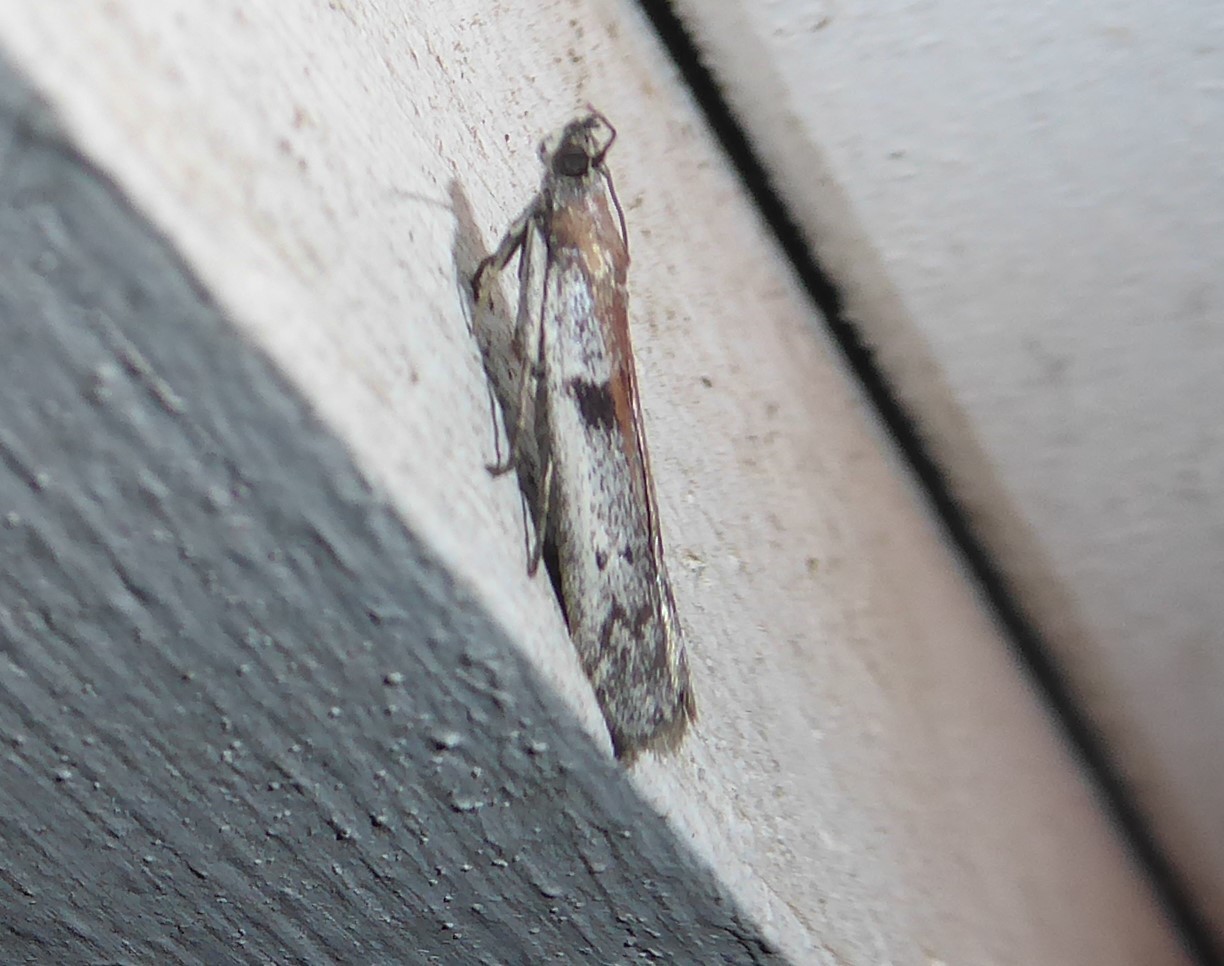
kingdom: Animalia
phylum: Arthropoda
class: Insecta
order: Lepidoptera
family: Pyralidae
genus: Patagoniodes
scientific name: Patagoniodes farinaria
